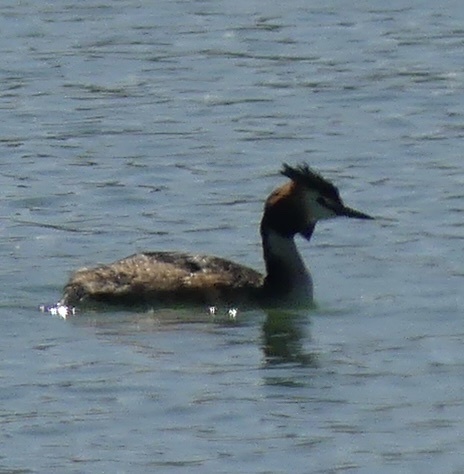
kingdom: Animalia
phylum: Chordata
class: Aves
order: Podicipediformes
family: Podicipedidae
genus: Podiceps
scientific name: Podiceps cristatus
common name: Great crested grebe
